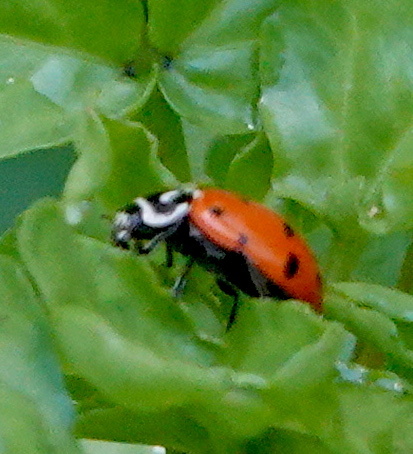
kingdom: Animalia
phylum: Arthropoda
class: Insecta
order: Coleoptera
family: Coccinellidae
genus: Hippodamia
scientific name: Hippodamia convergens
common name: Convergent lady beetle
